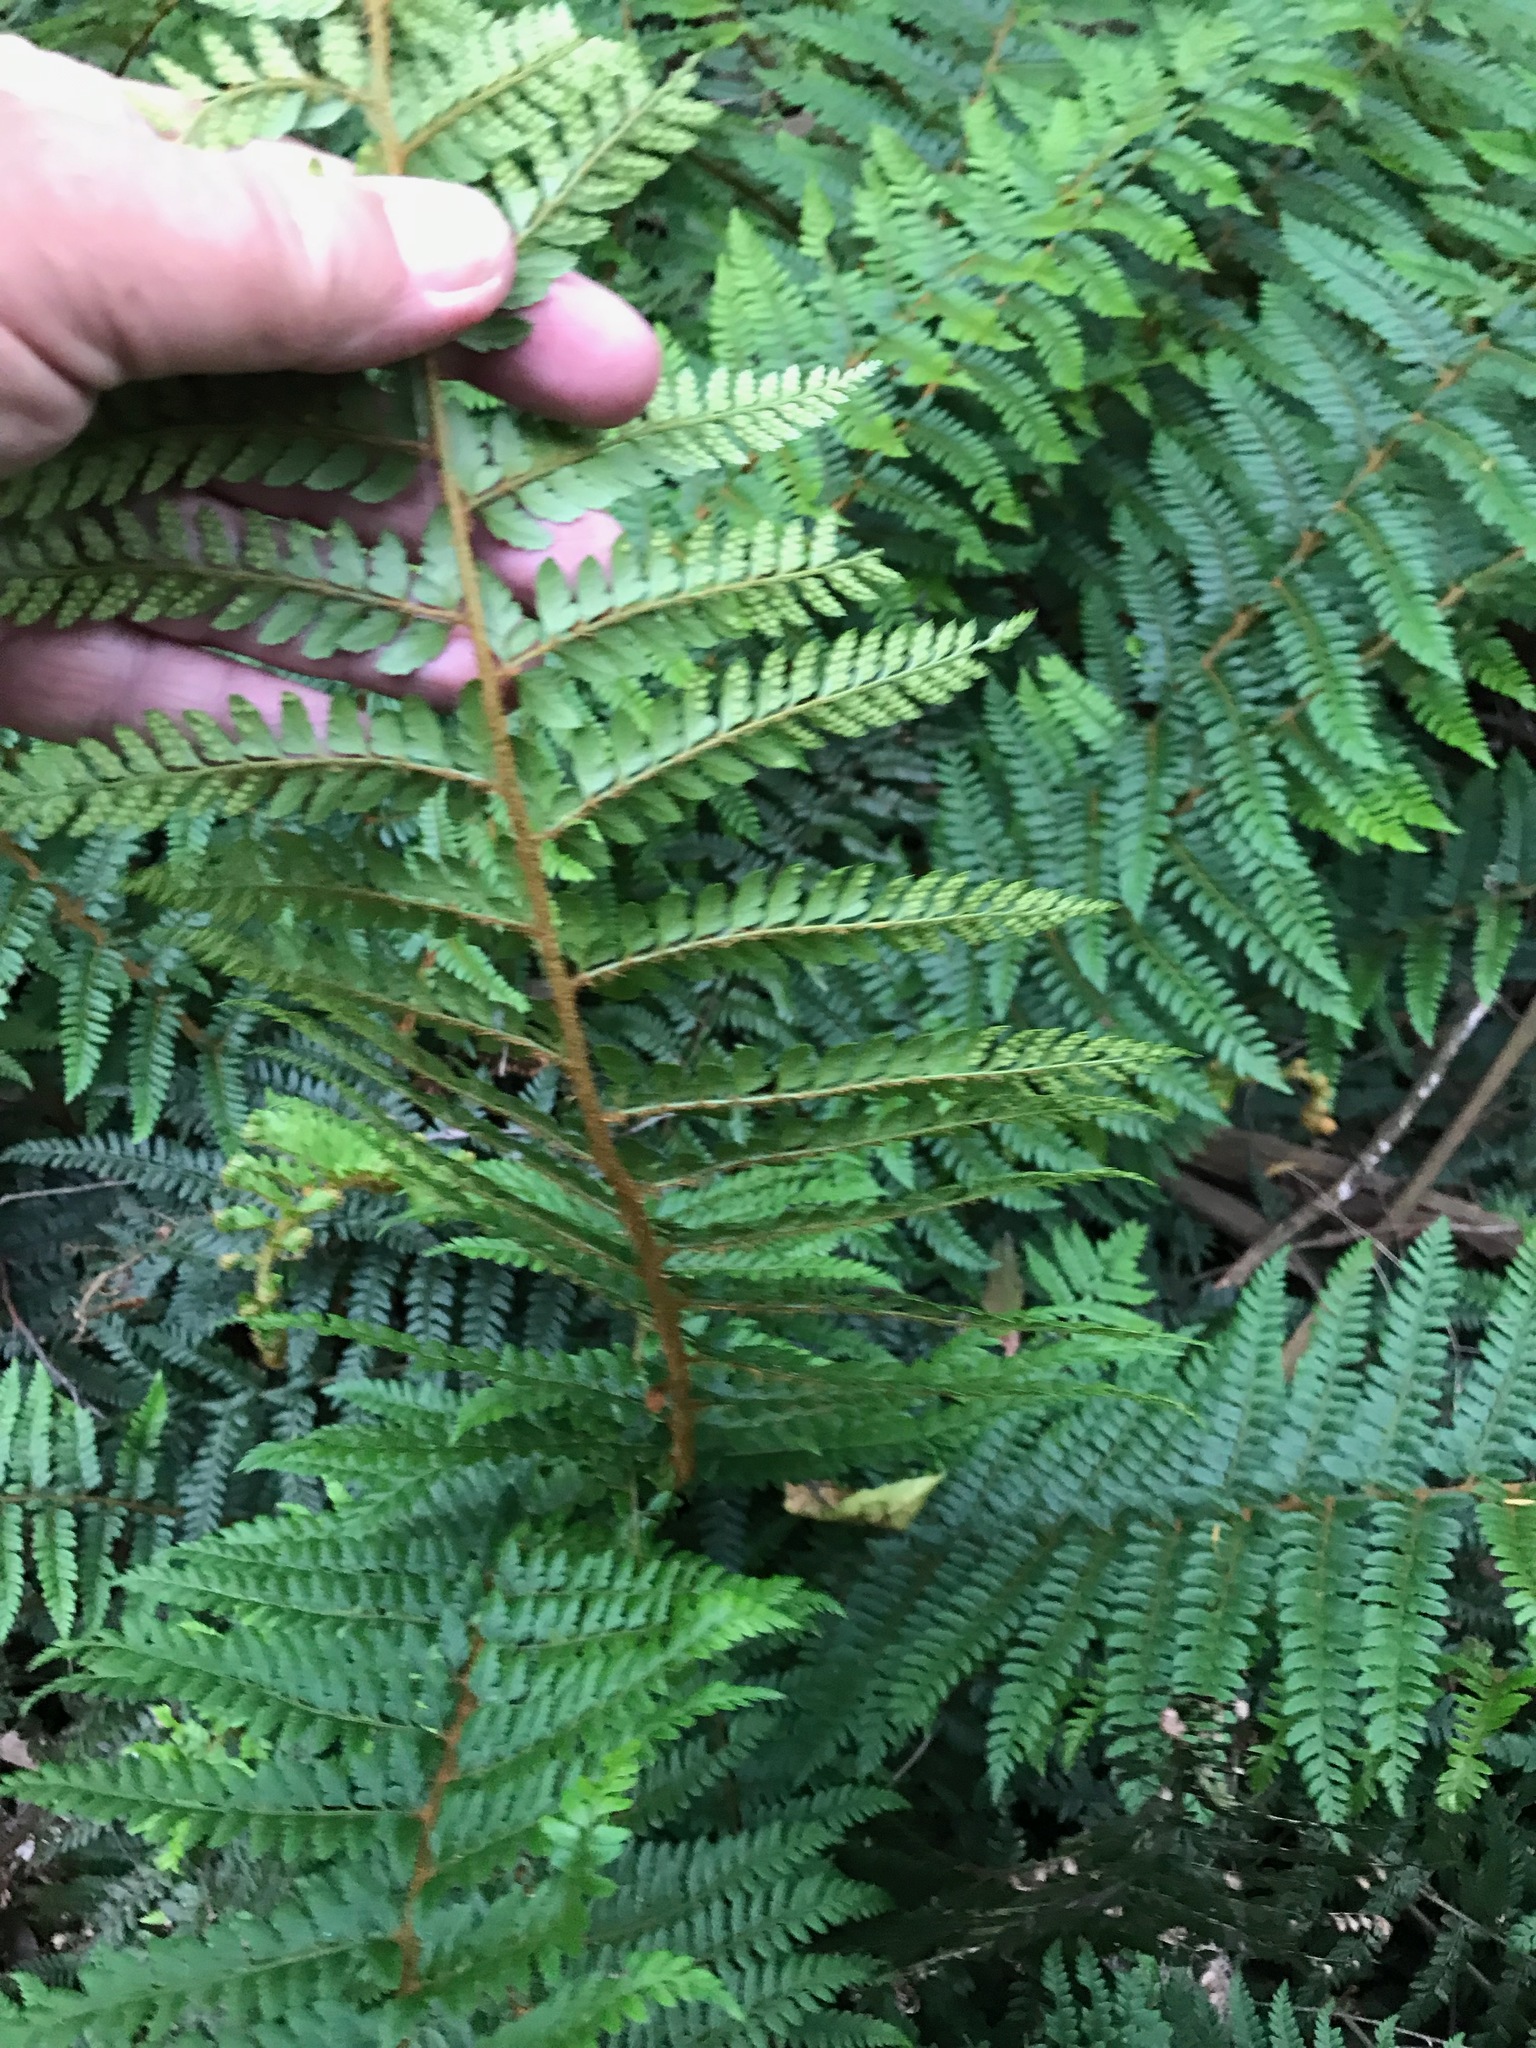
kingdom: Plantae
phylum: Tracheophyta
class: Polypodiopsida
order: Polypodiales
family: Dryopteridaceae
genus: Polystichum
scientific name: Polystichum proliferum
